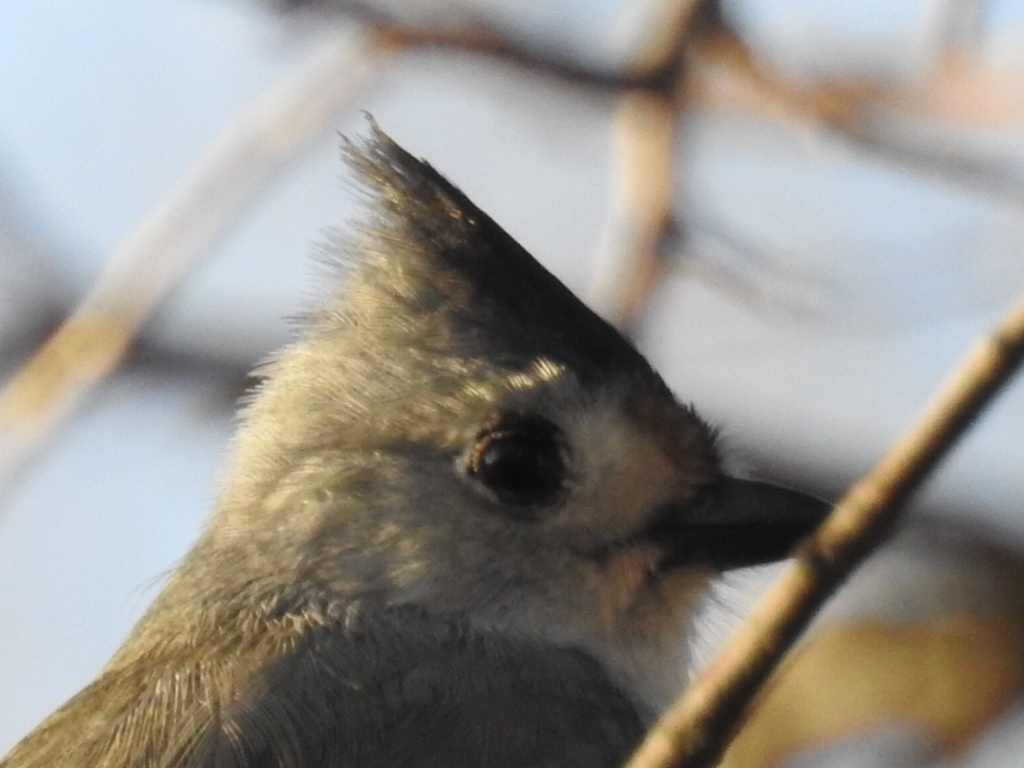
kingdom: Animalia
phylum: Chordata
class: Aves
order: Passeriformes
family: Paridae
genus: Baeolophus
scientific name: Baeolophus
